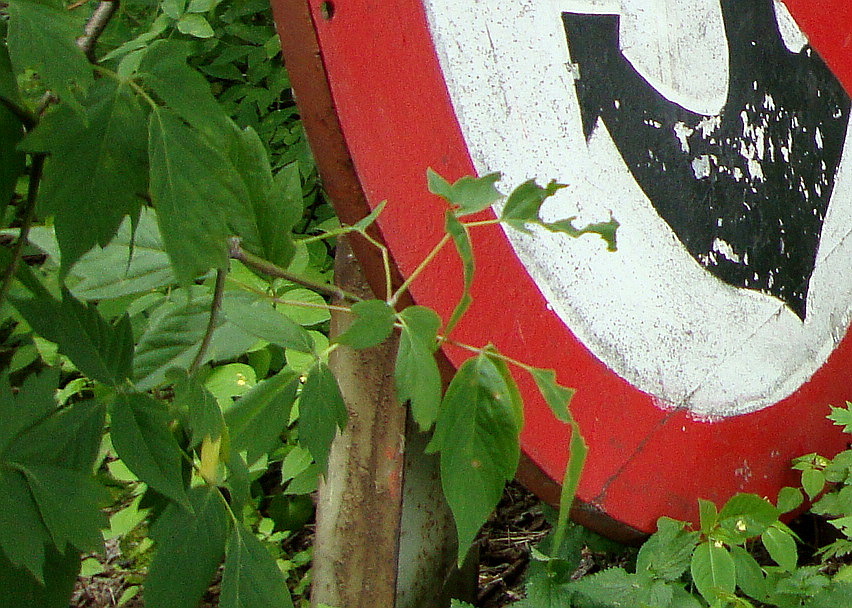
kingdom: Plantae
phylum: Tracheophyta
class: Magnoliopsida
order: Sapindales
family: Sapindaceae
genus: Acer
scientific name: Acer negundo
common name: Ashleaf maple
